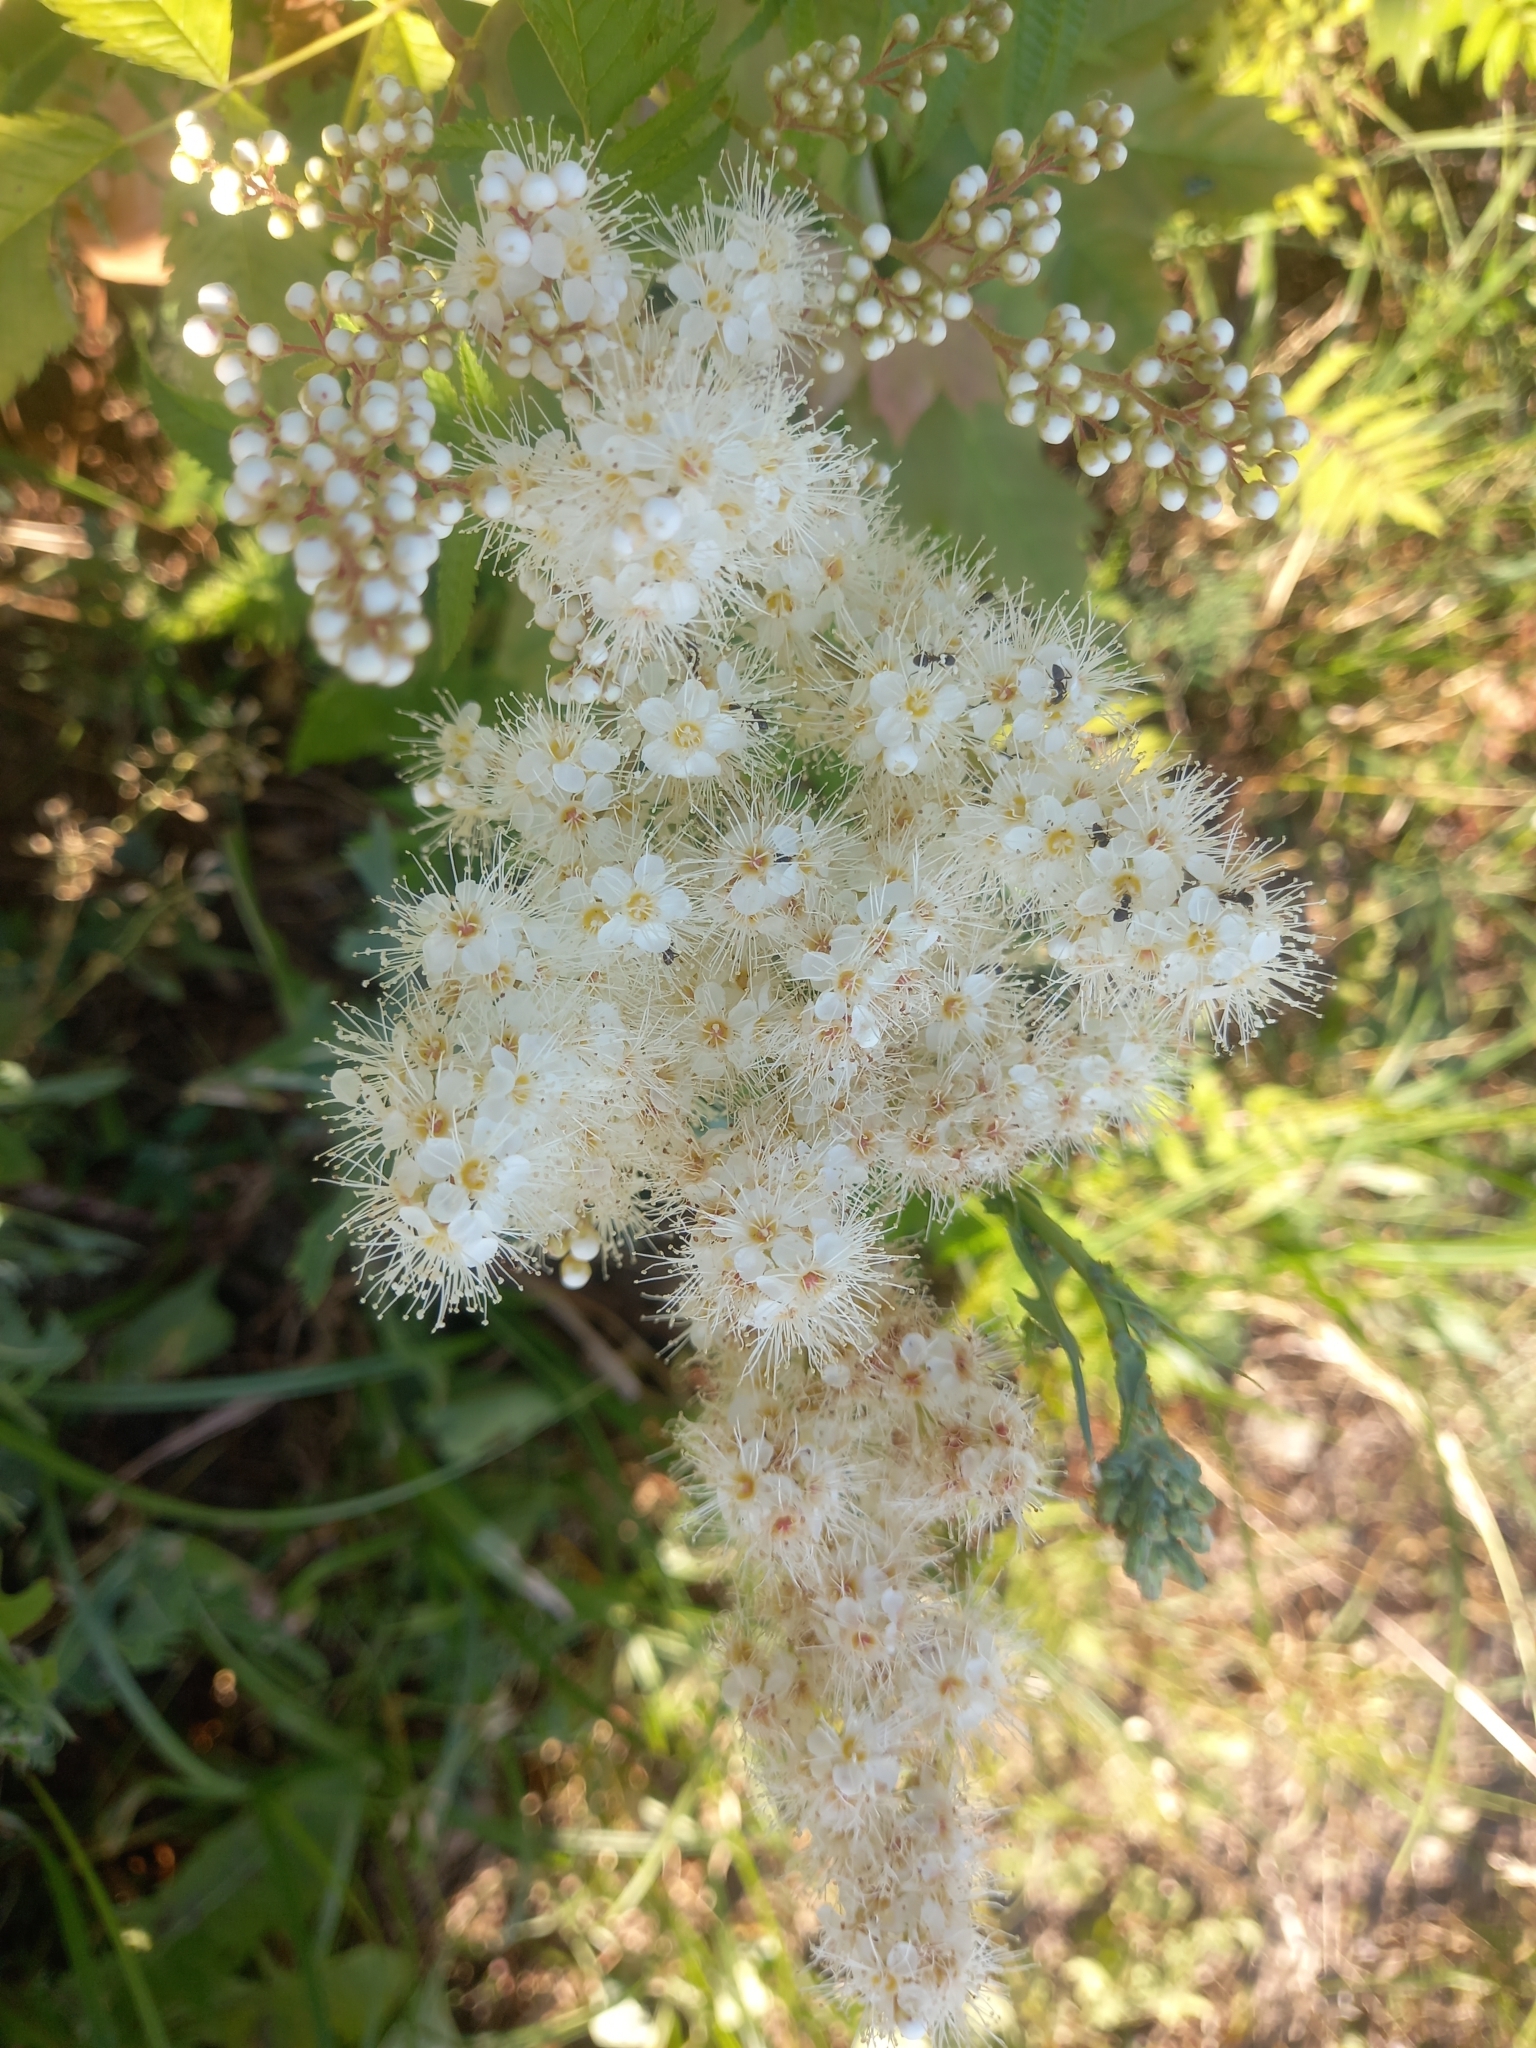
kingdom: Plantae
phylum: Tracheophyta
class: Magnoliopsida
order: Rosales
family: Rosaceae
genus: Sorbaria
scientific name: Sorbaria sorbifolia
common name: False spiraea
